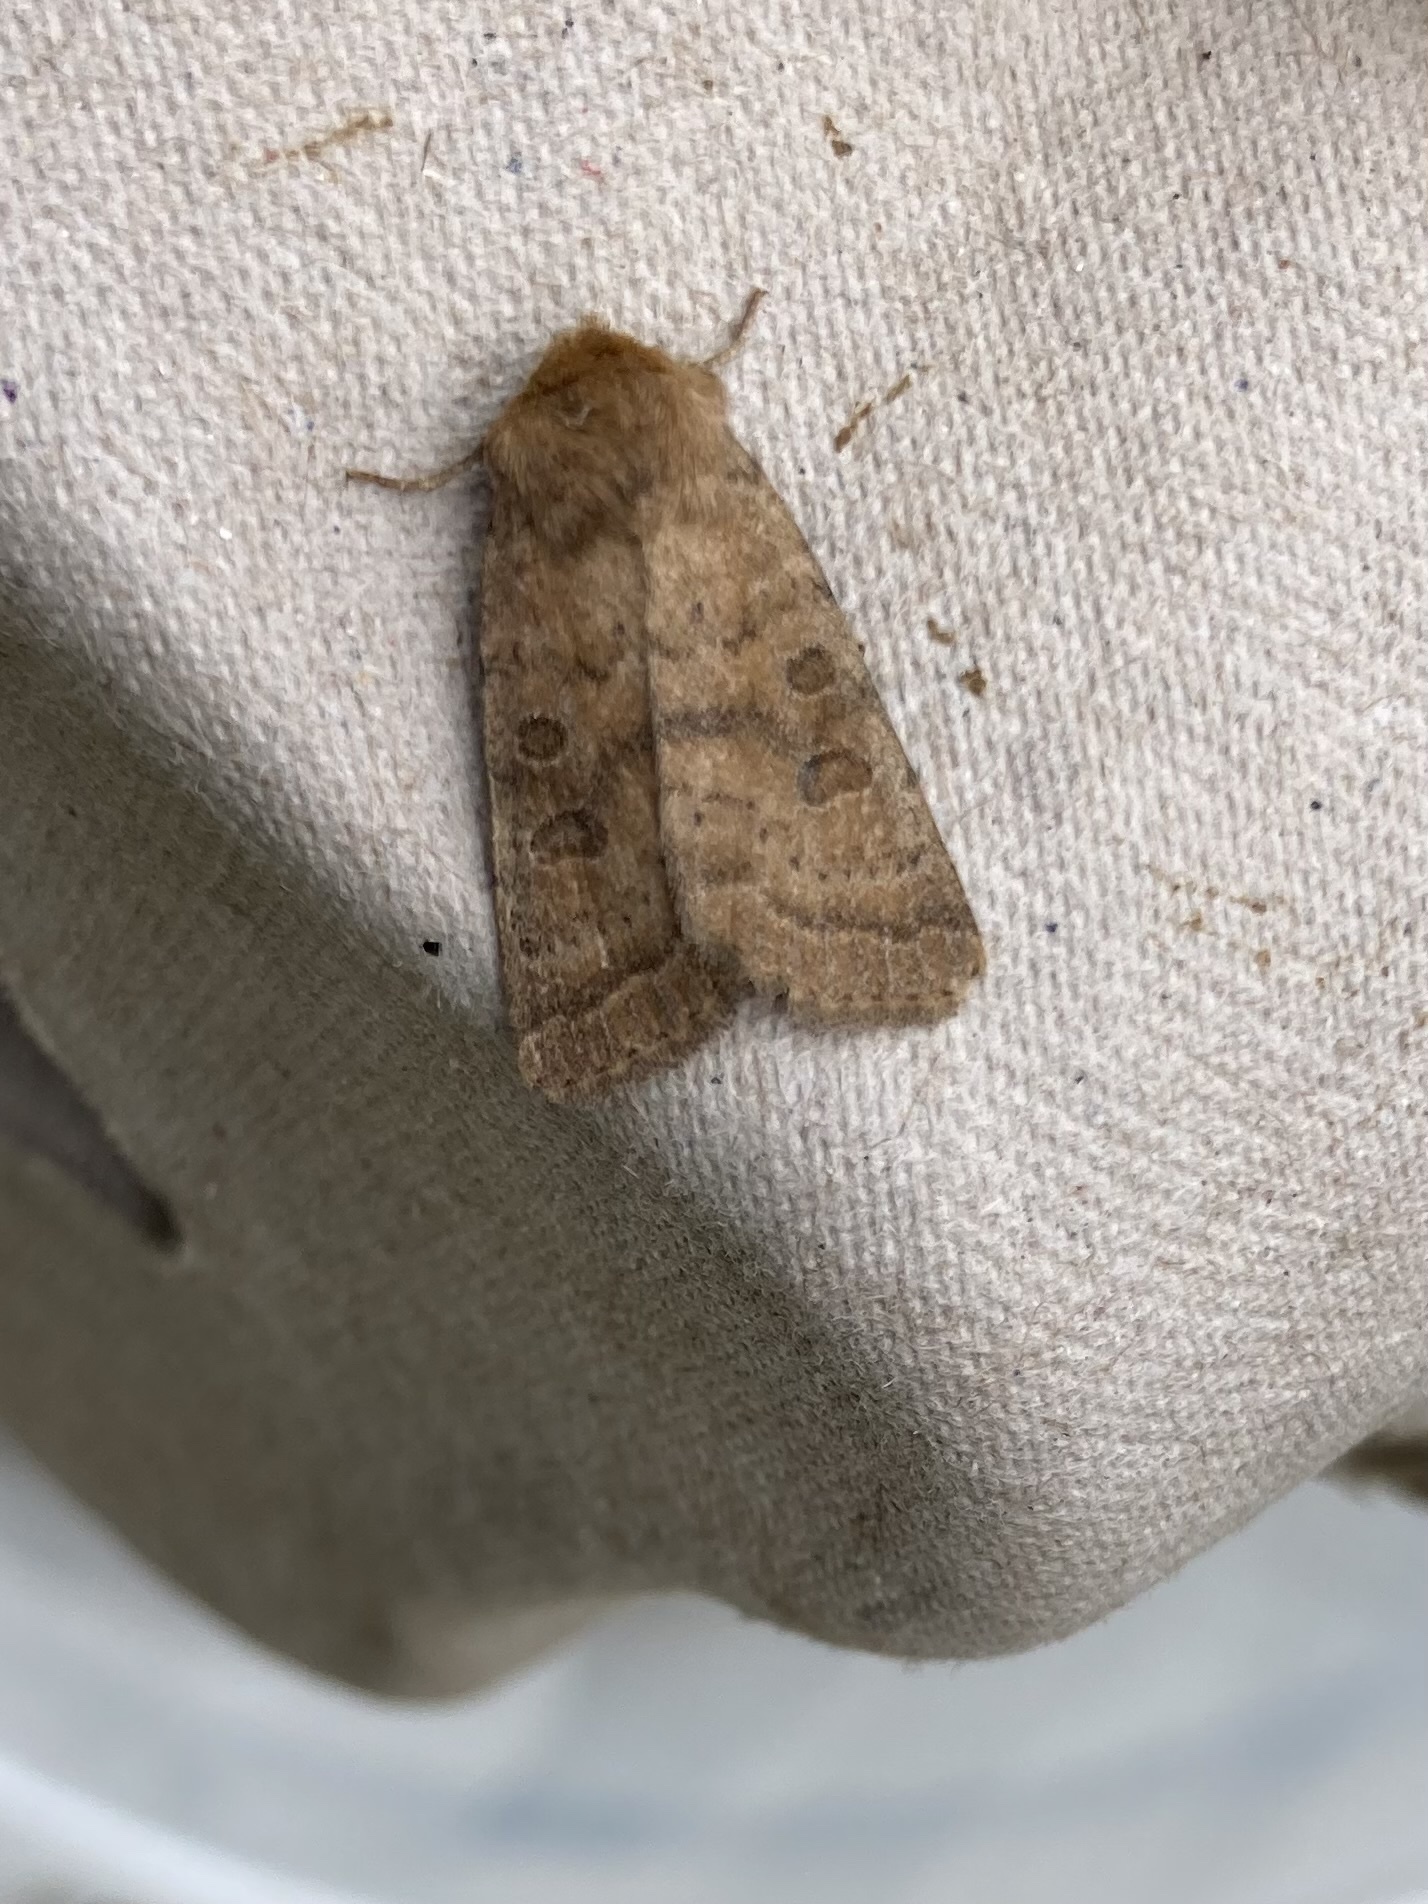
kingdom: Animalia
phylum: Arthropoda
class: Insecta
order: Lepidoptera
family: Noctuidae
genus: Hoplodrina
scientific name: Hoplodrina octogenaria
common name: Uncertain
